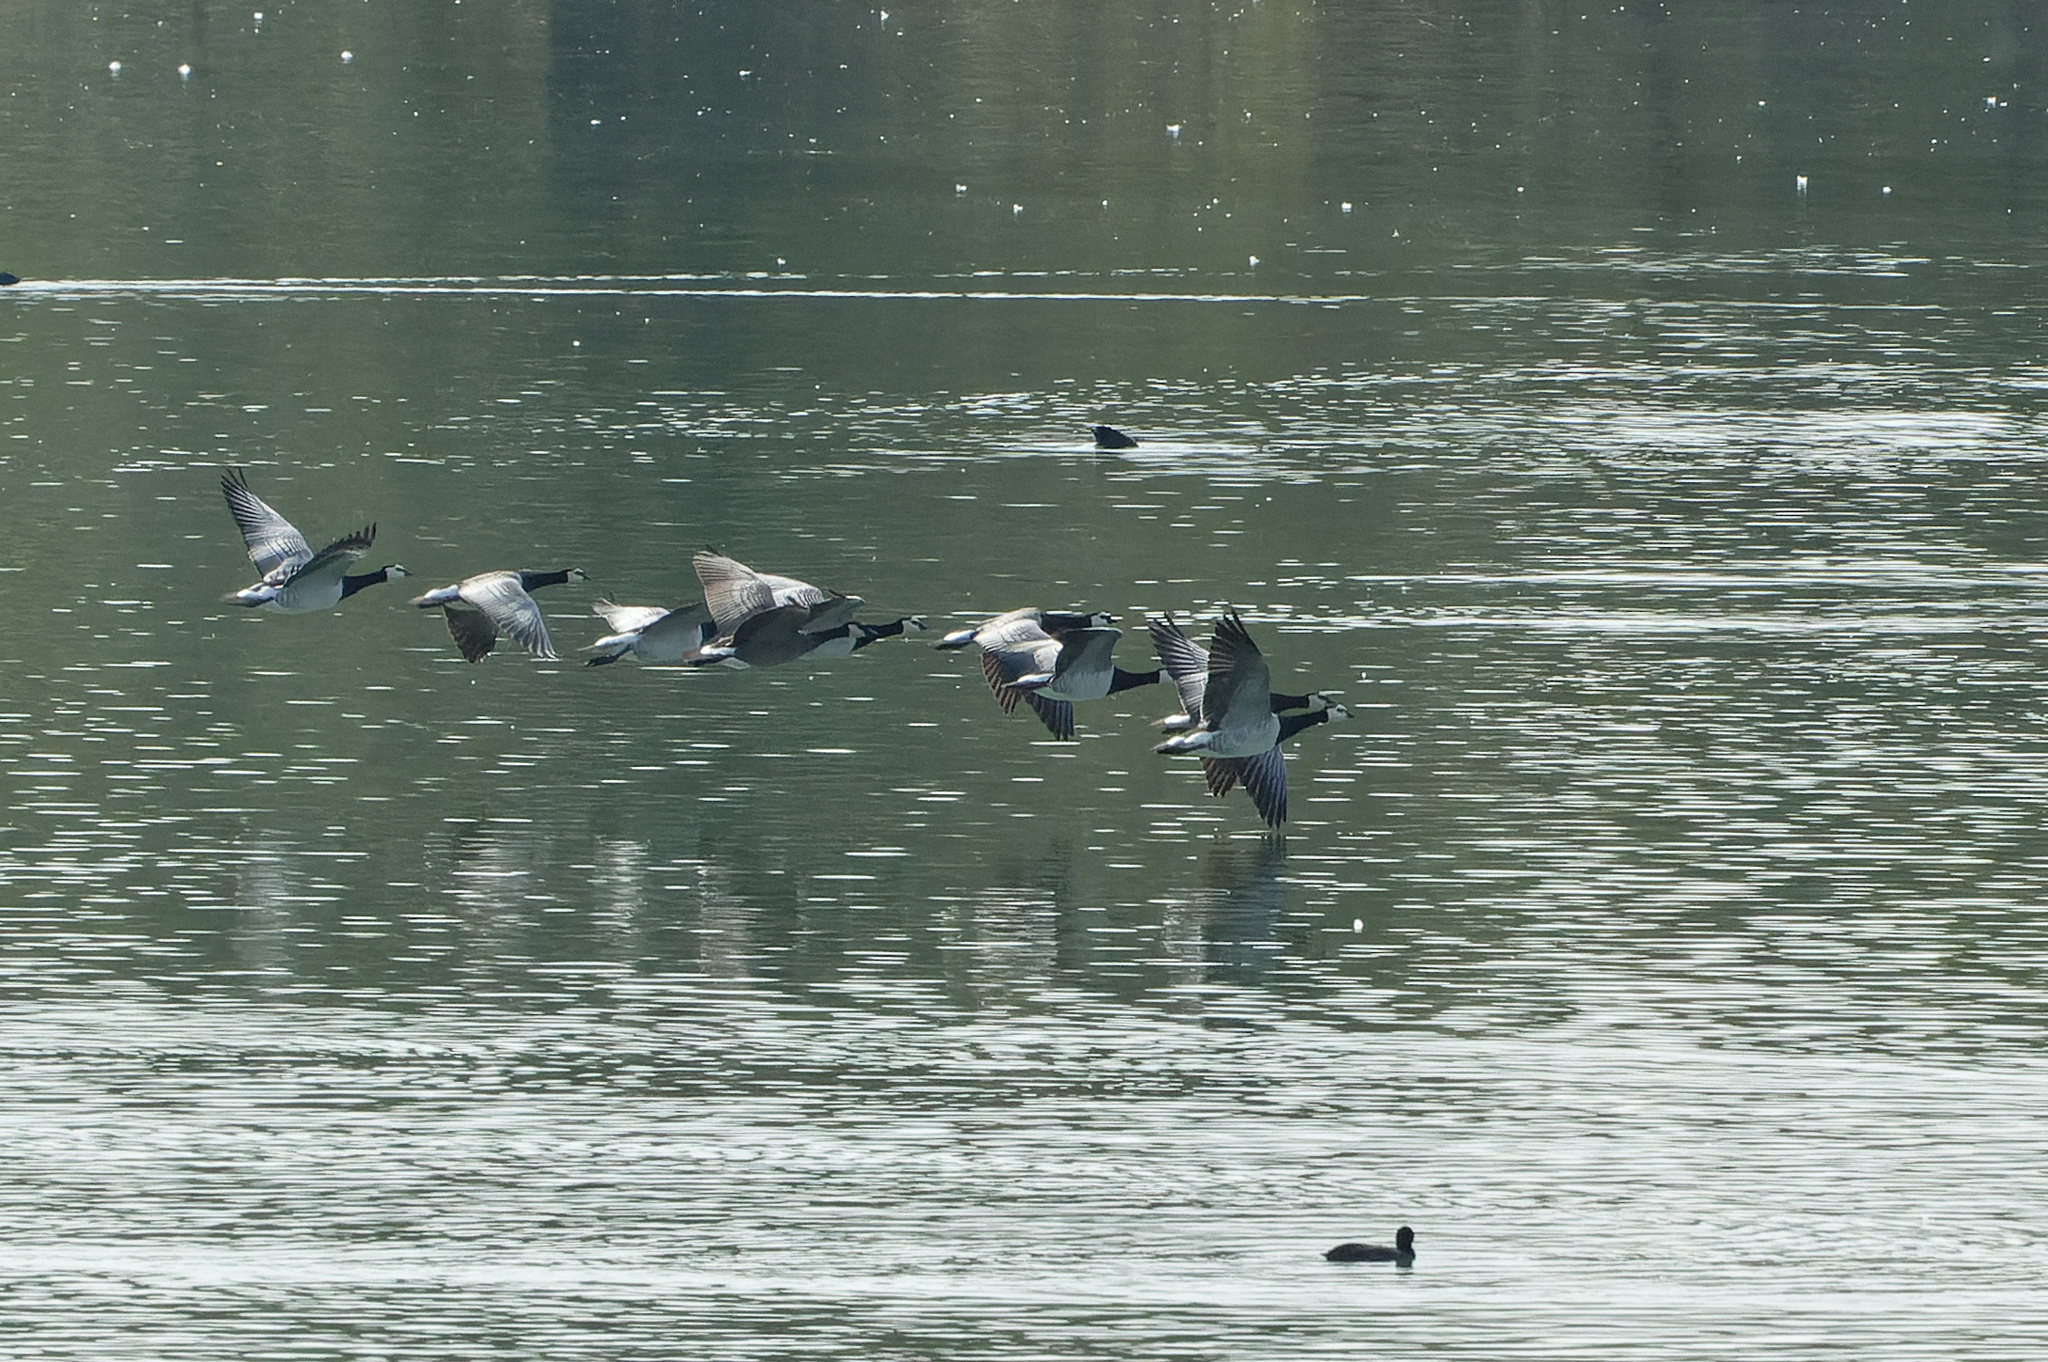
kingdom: Animalia
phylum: Chordata
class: Aves
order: Anseriformes
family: Anatidae
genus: Branta
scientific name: Branta leucopsis
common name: Barnacle goose
